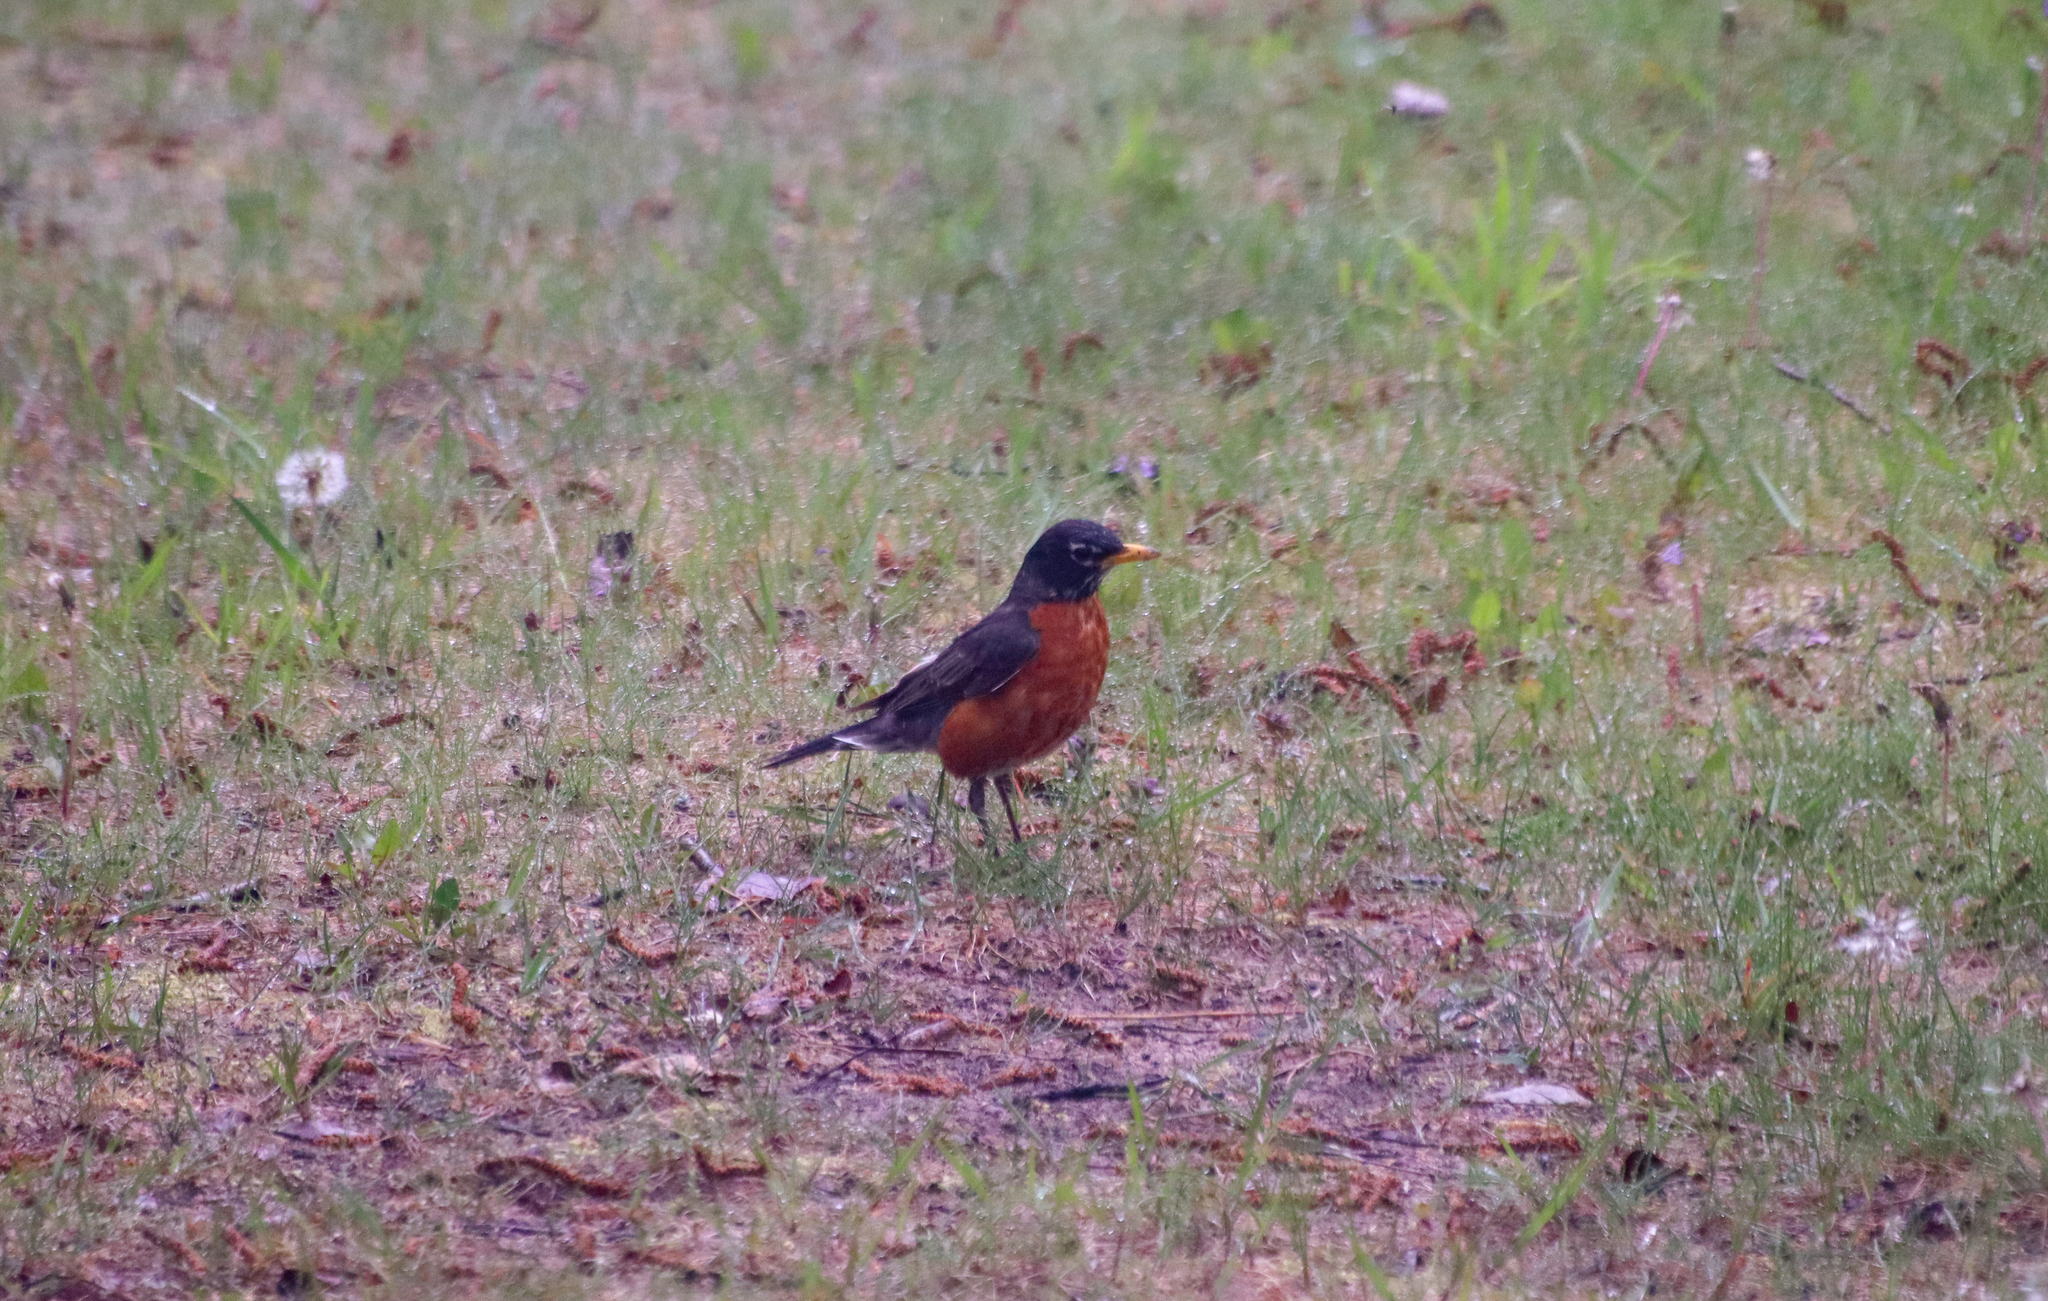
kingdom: Animalia
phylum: Chordata
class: Aves
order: Passeriformes
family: Turdidae
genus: Turdus
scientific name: Turdus migratorius
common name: American robin
